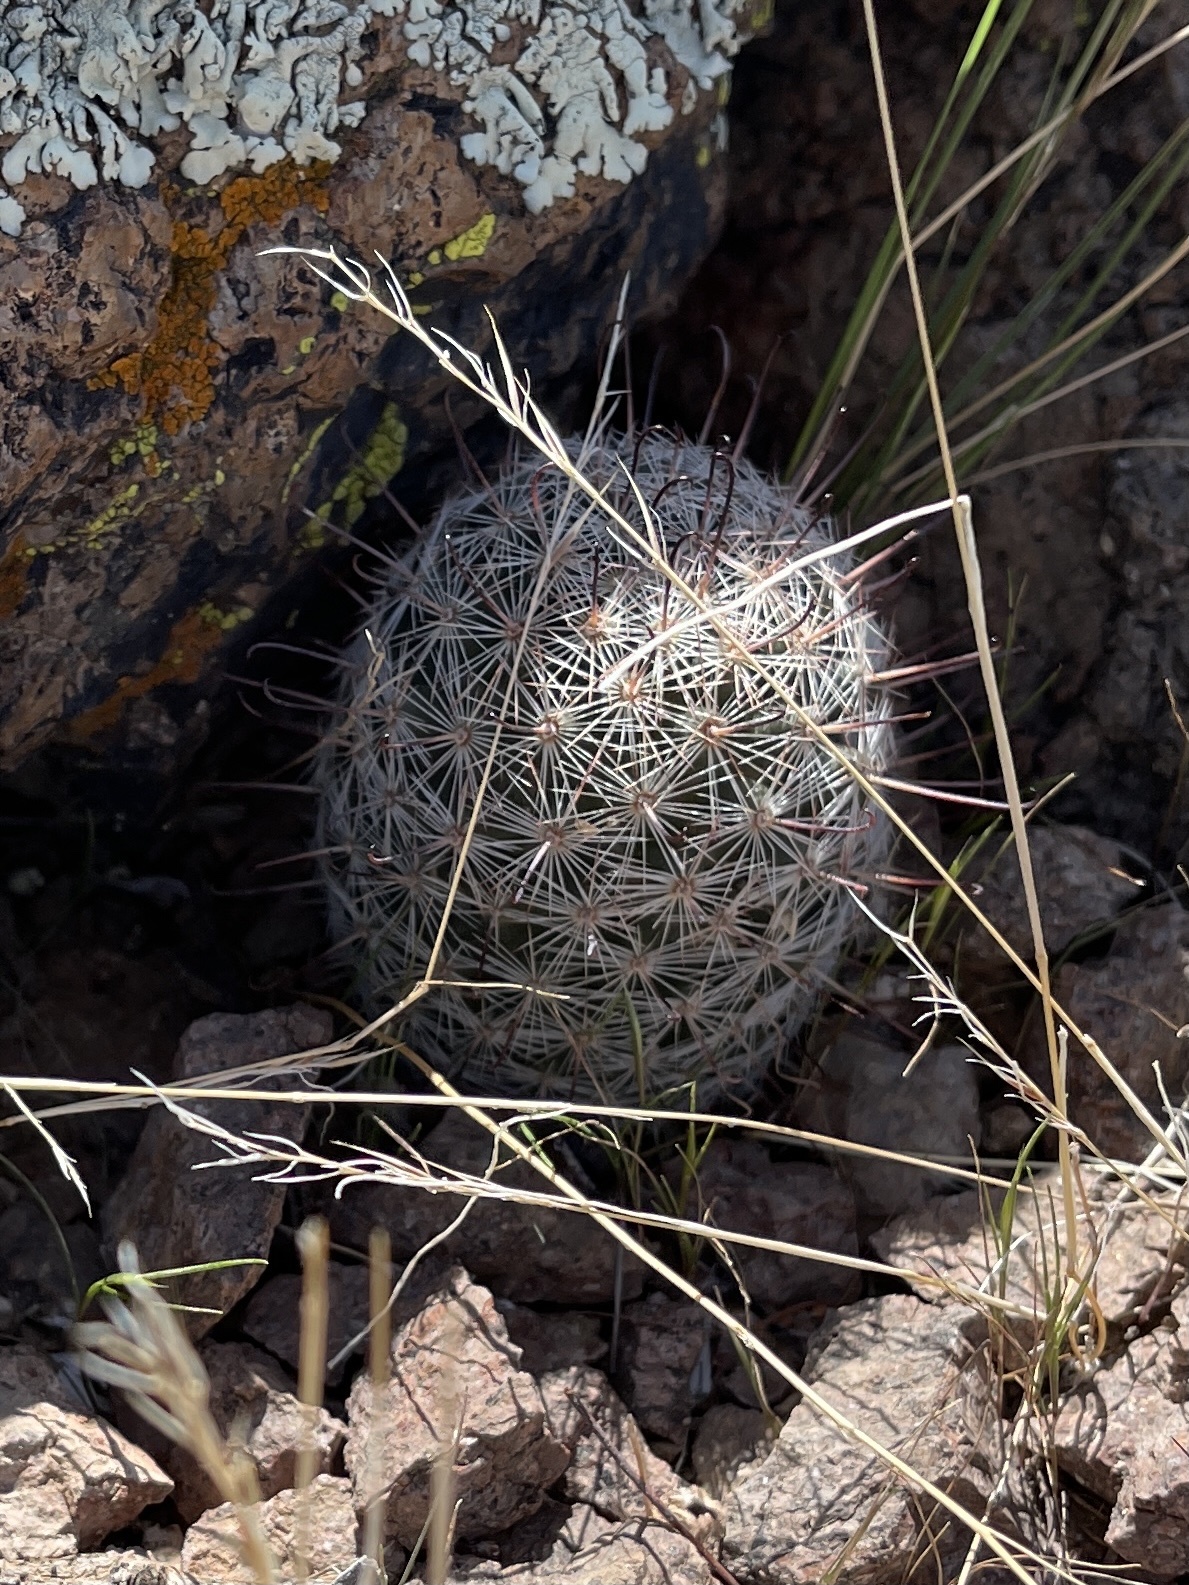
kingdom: Plantae
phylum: Tracheophyta
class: Magnoliopsida
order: Caryophyllales
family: Cactaceae
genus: Cochemiea
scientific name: Cochemiea grahamii
